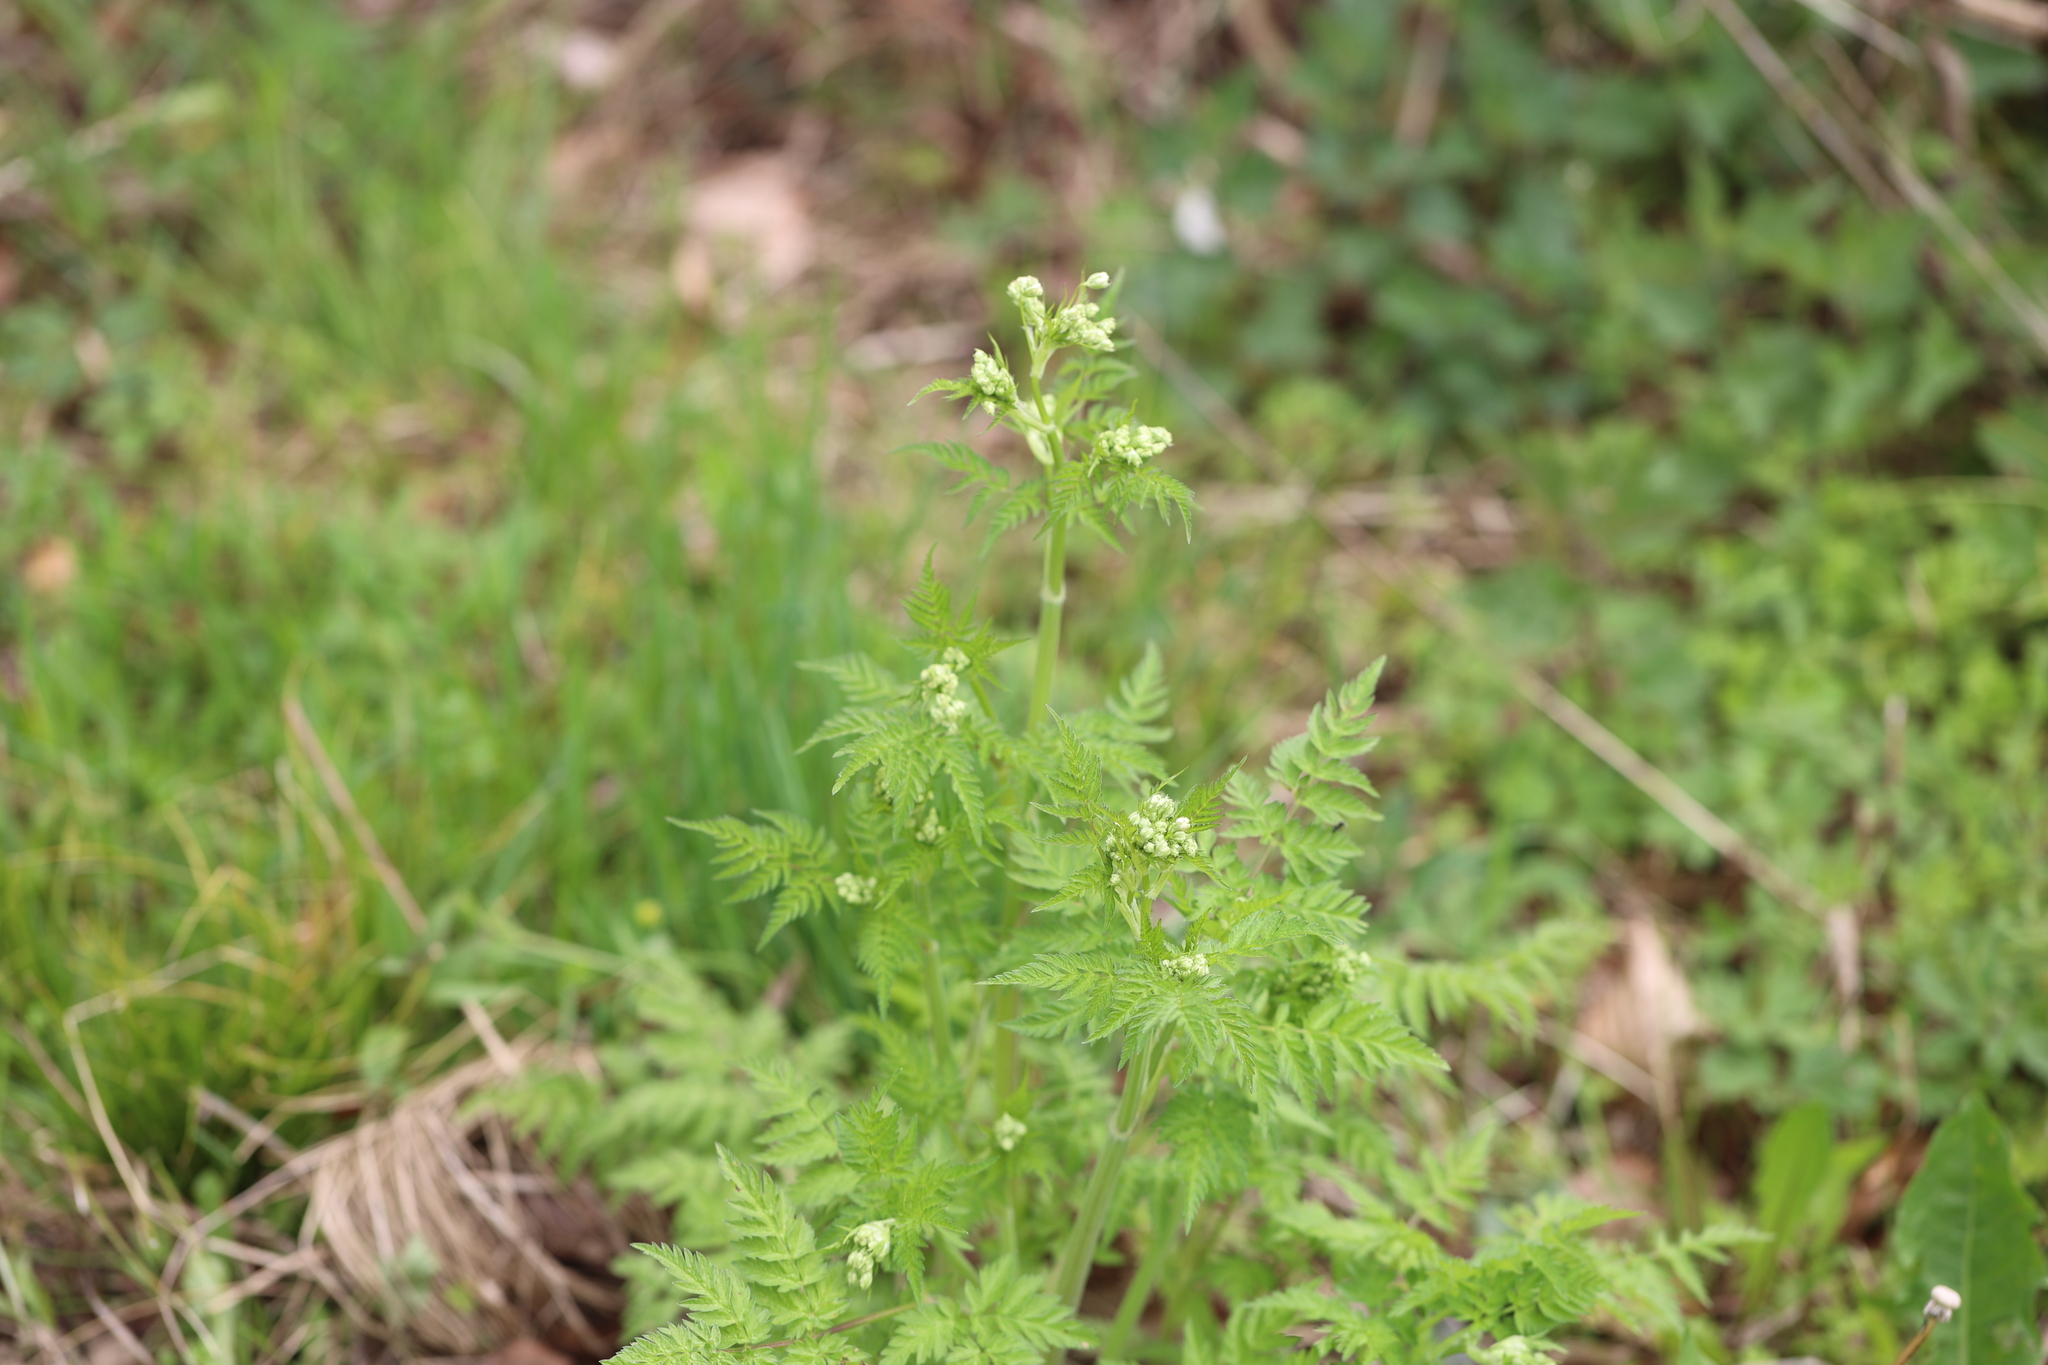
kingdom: Plantae
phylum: Tracheophyta
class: Magnoliopsida
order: Apiales
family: Apiaceae
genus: Anthriscus
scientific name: Anthriscus sylvestris
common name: Cow parsley
